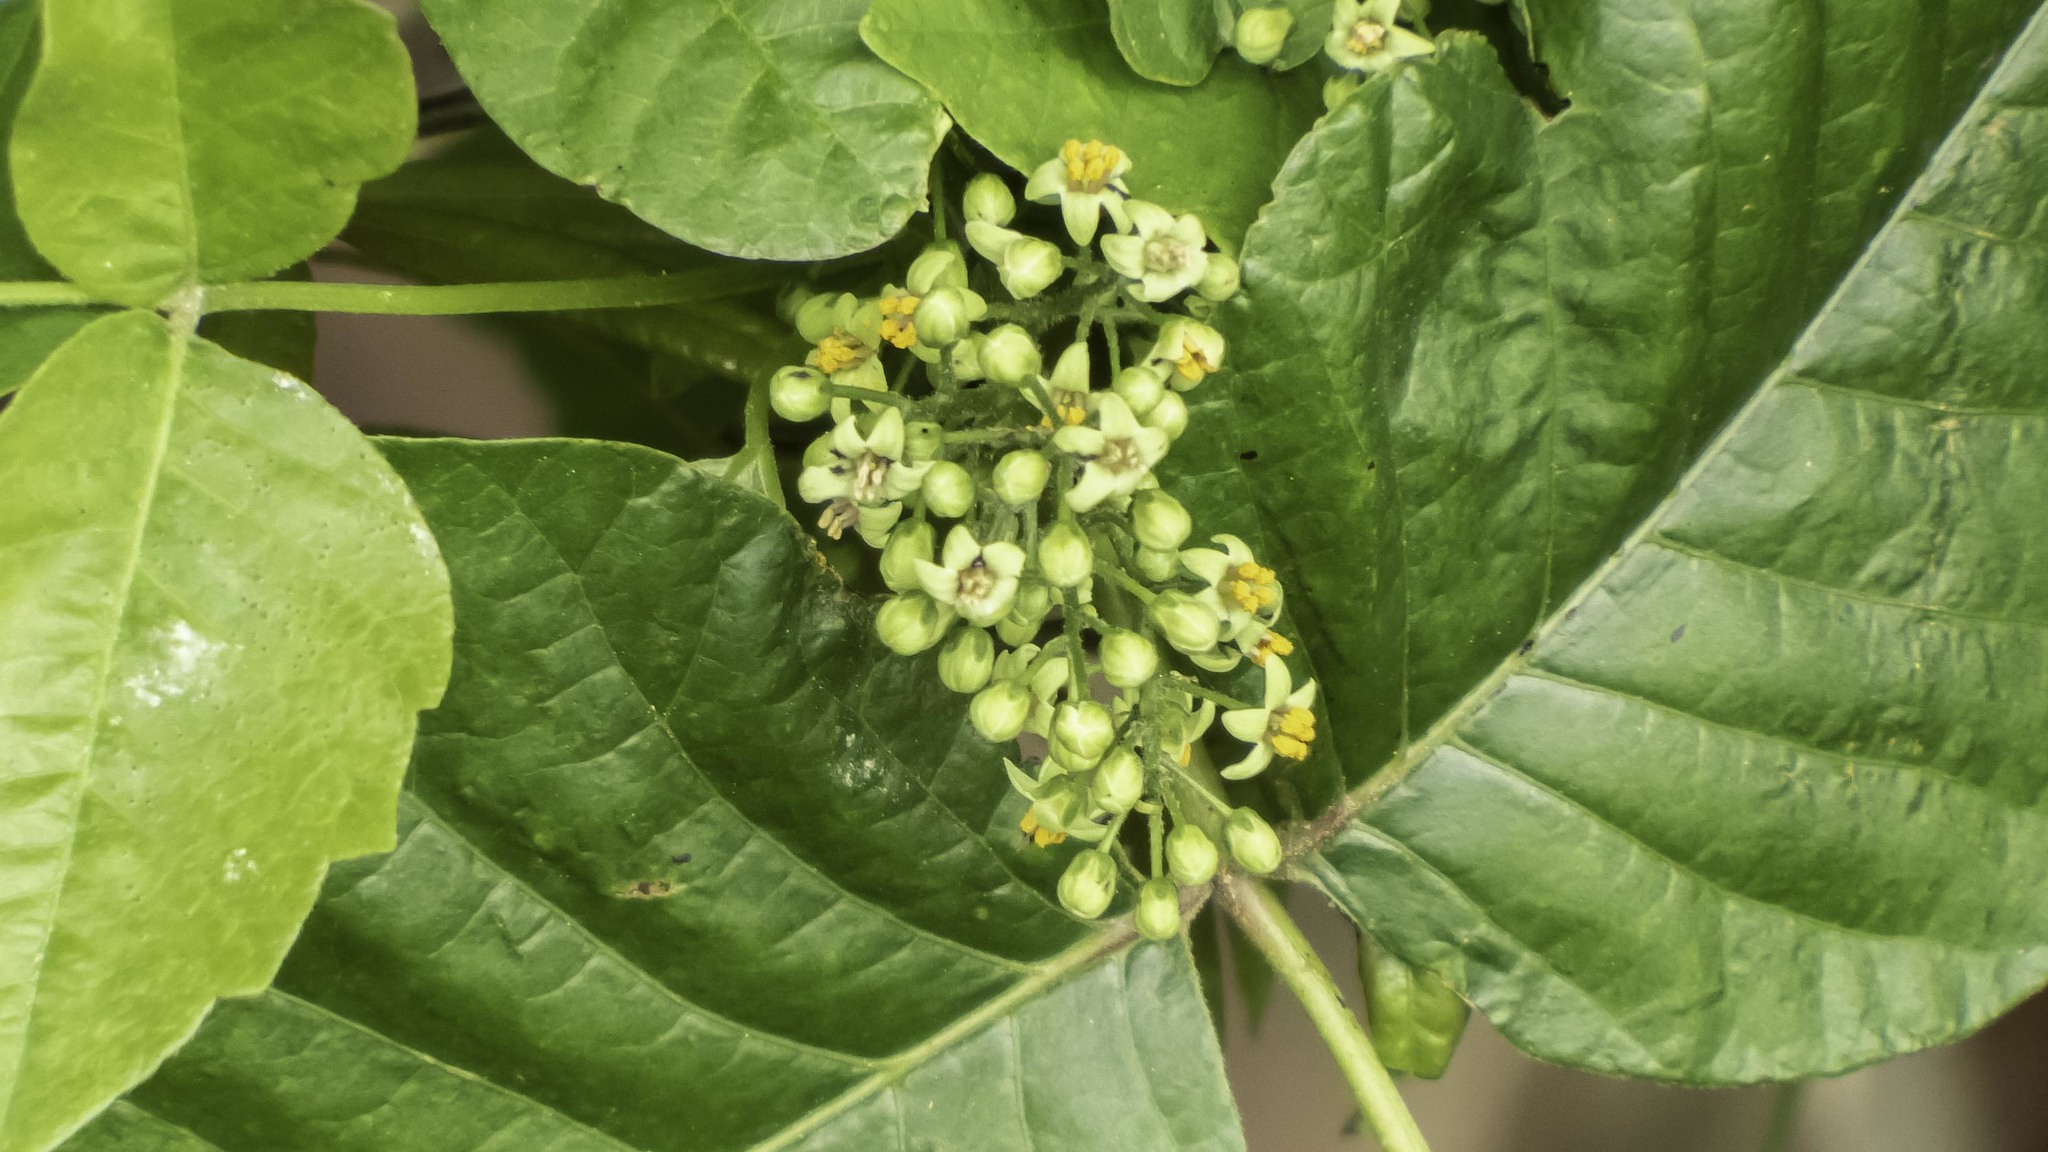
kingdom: Plantae
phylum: Tracheophyta
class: Magnoliopsida
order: Sapindales
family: Anacardiaceae
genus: Toxicodendron
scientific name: Toxicodendron radicans
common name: Poison ivy
